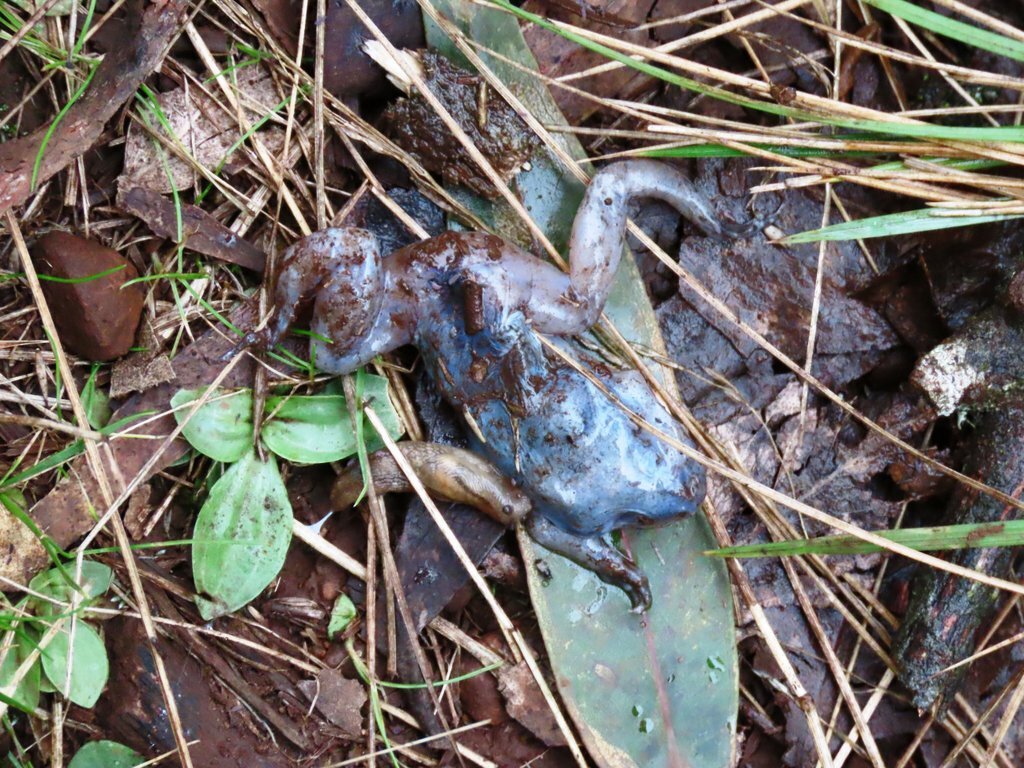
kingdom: Animalia
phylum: Mollusca
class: Gastropoda
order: Stylommatophora
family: Limacidae
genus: Ambigolimax
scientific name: Ambigolimax
